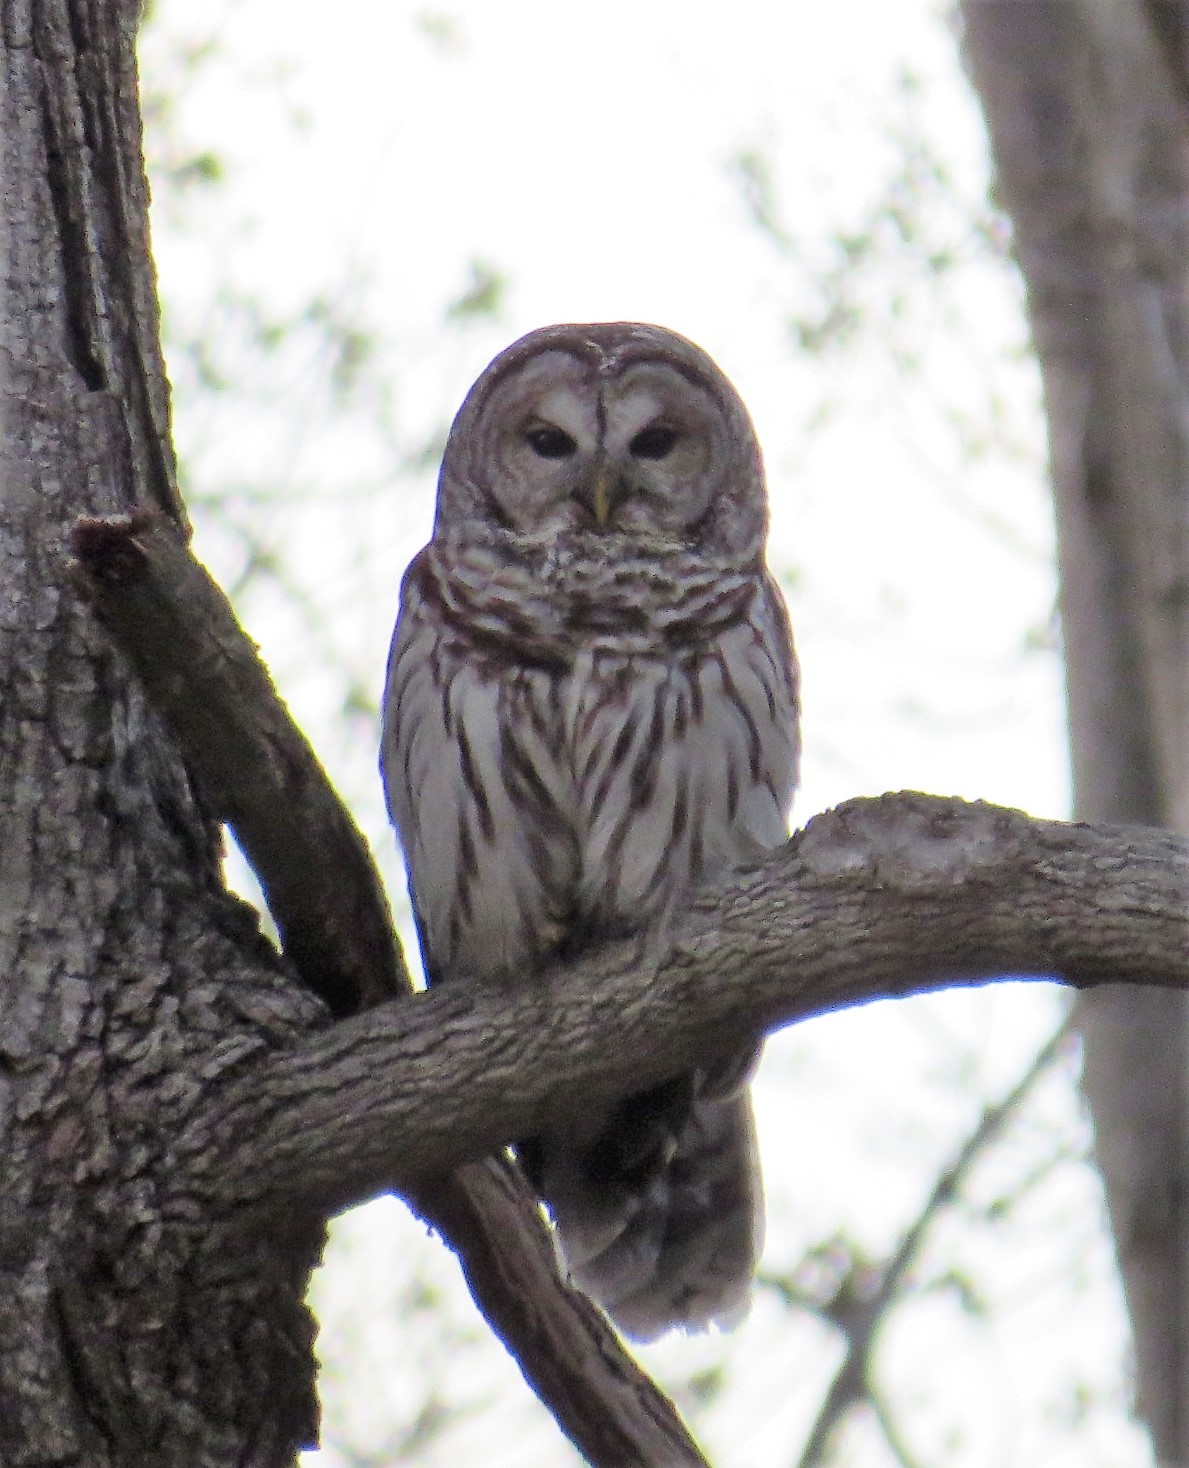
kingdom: Animalia
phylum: Chordata
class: Aves
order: Strigiformes
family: Strigidae
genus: Strix
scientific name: Strix varia
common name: Barred owl
